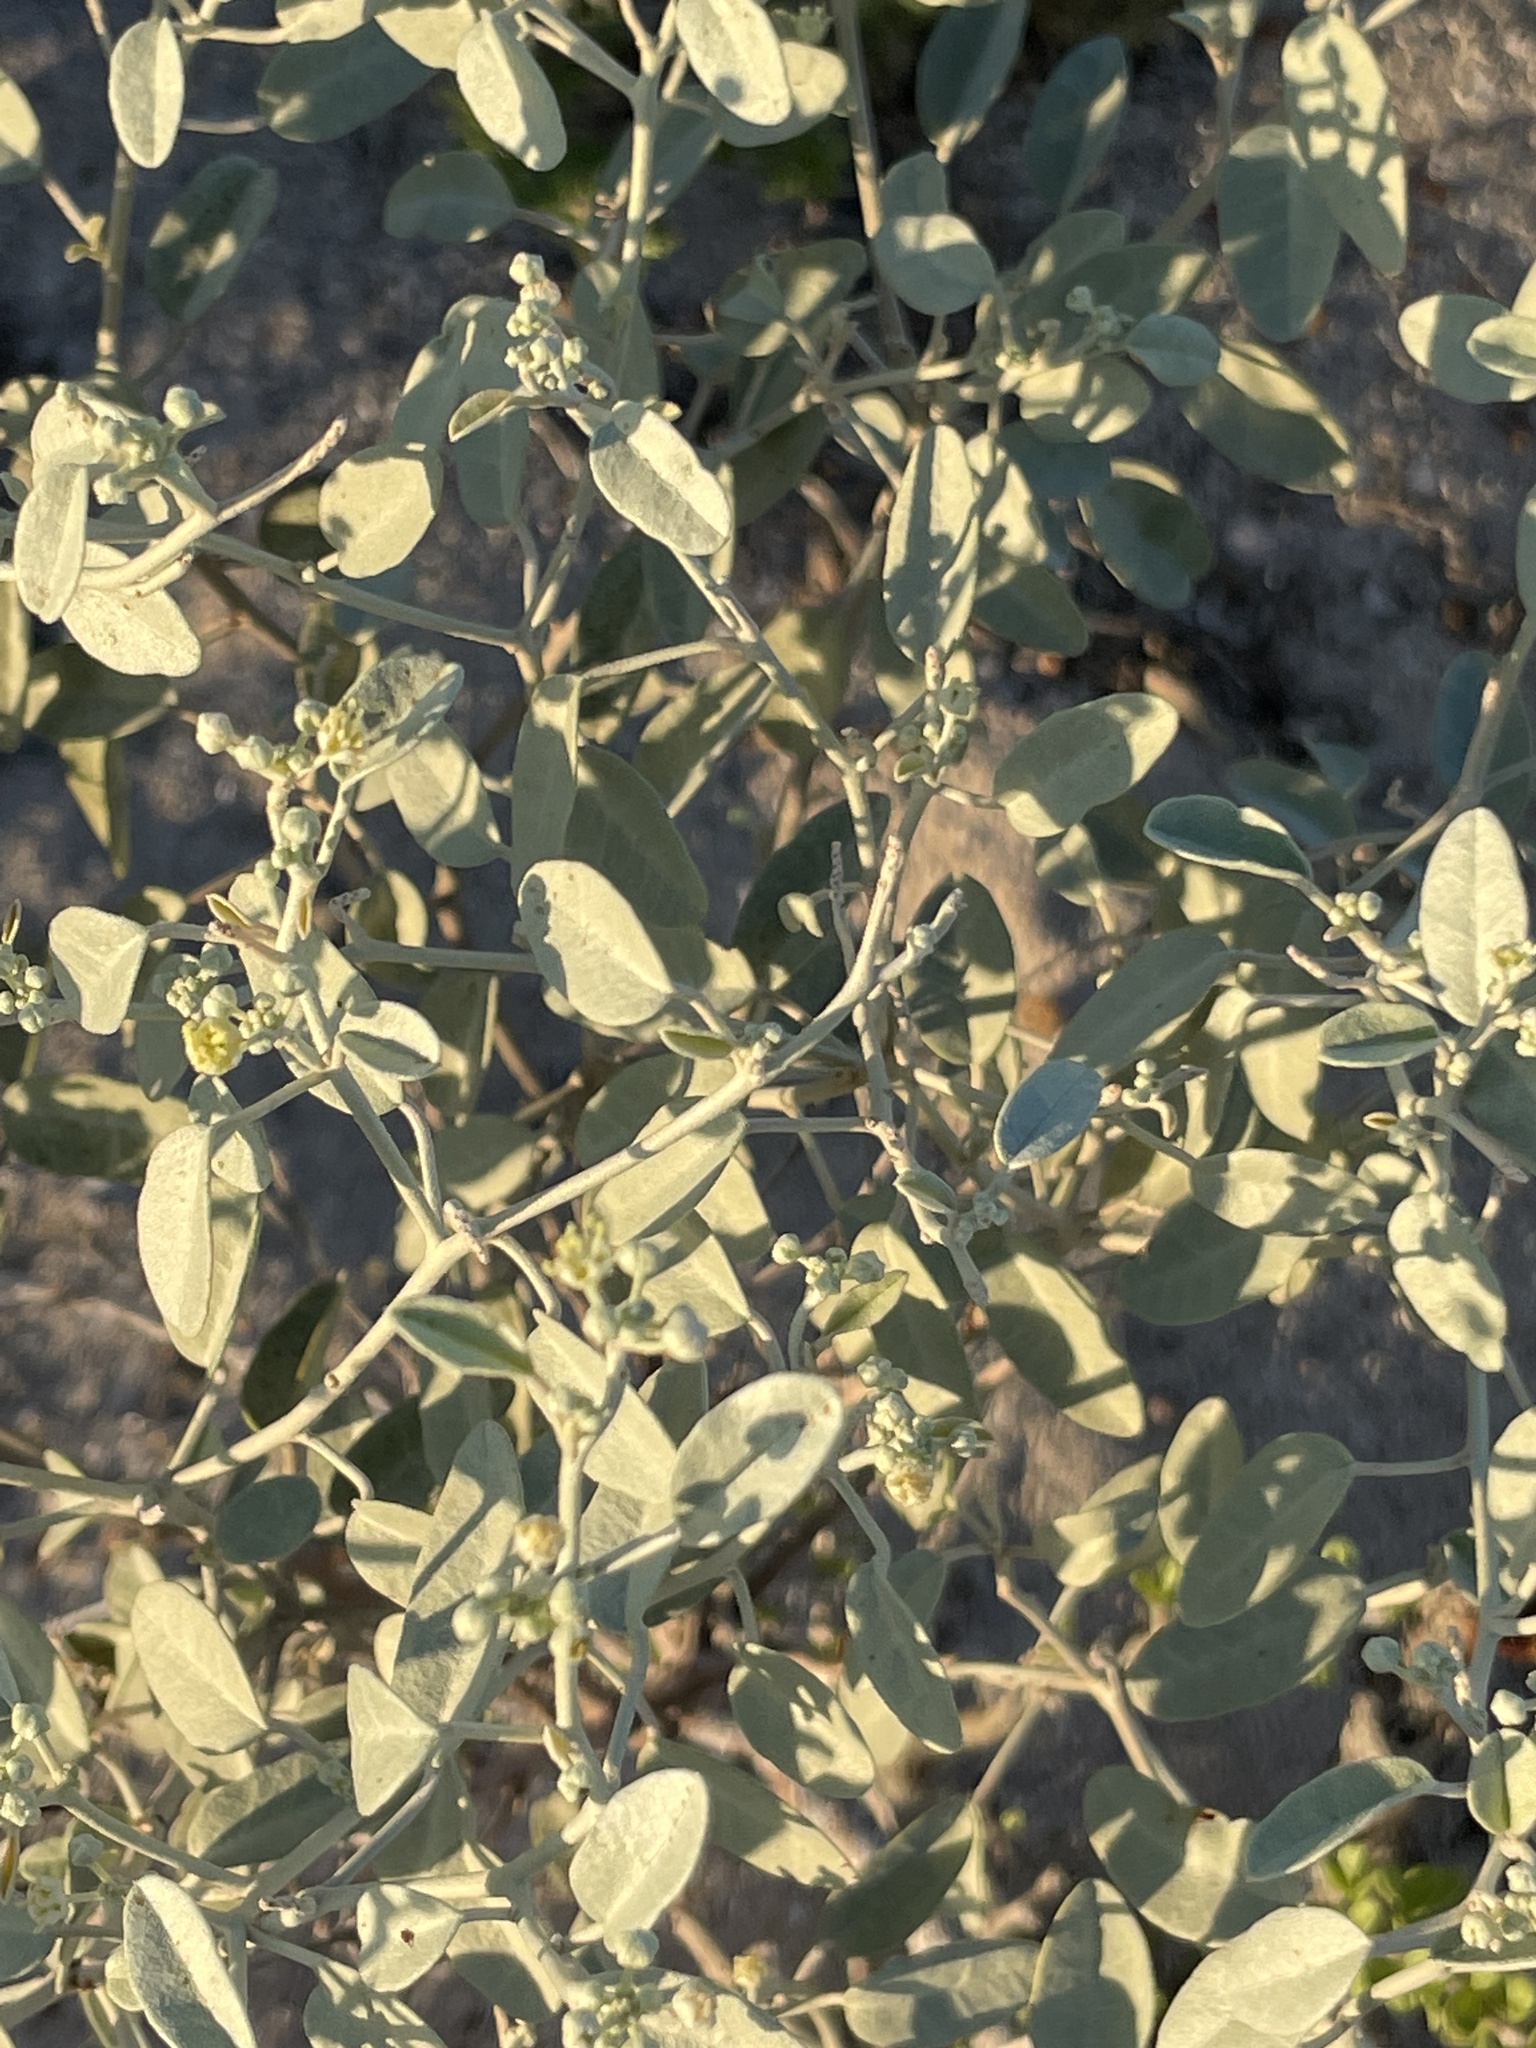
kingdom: Plantae
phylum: Tracheophyta
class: Magnoliopsida
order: Malpighiales
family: Euphorbiaceae
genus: Croton
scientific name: Croton californicus
